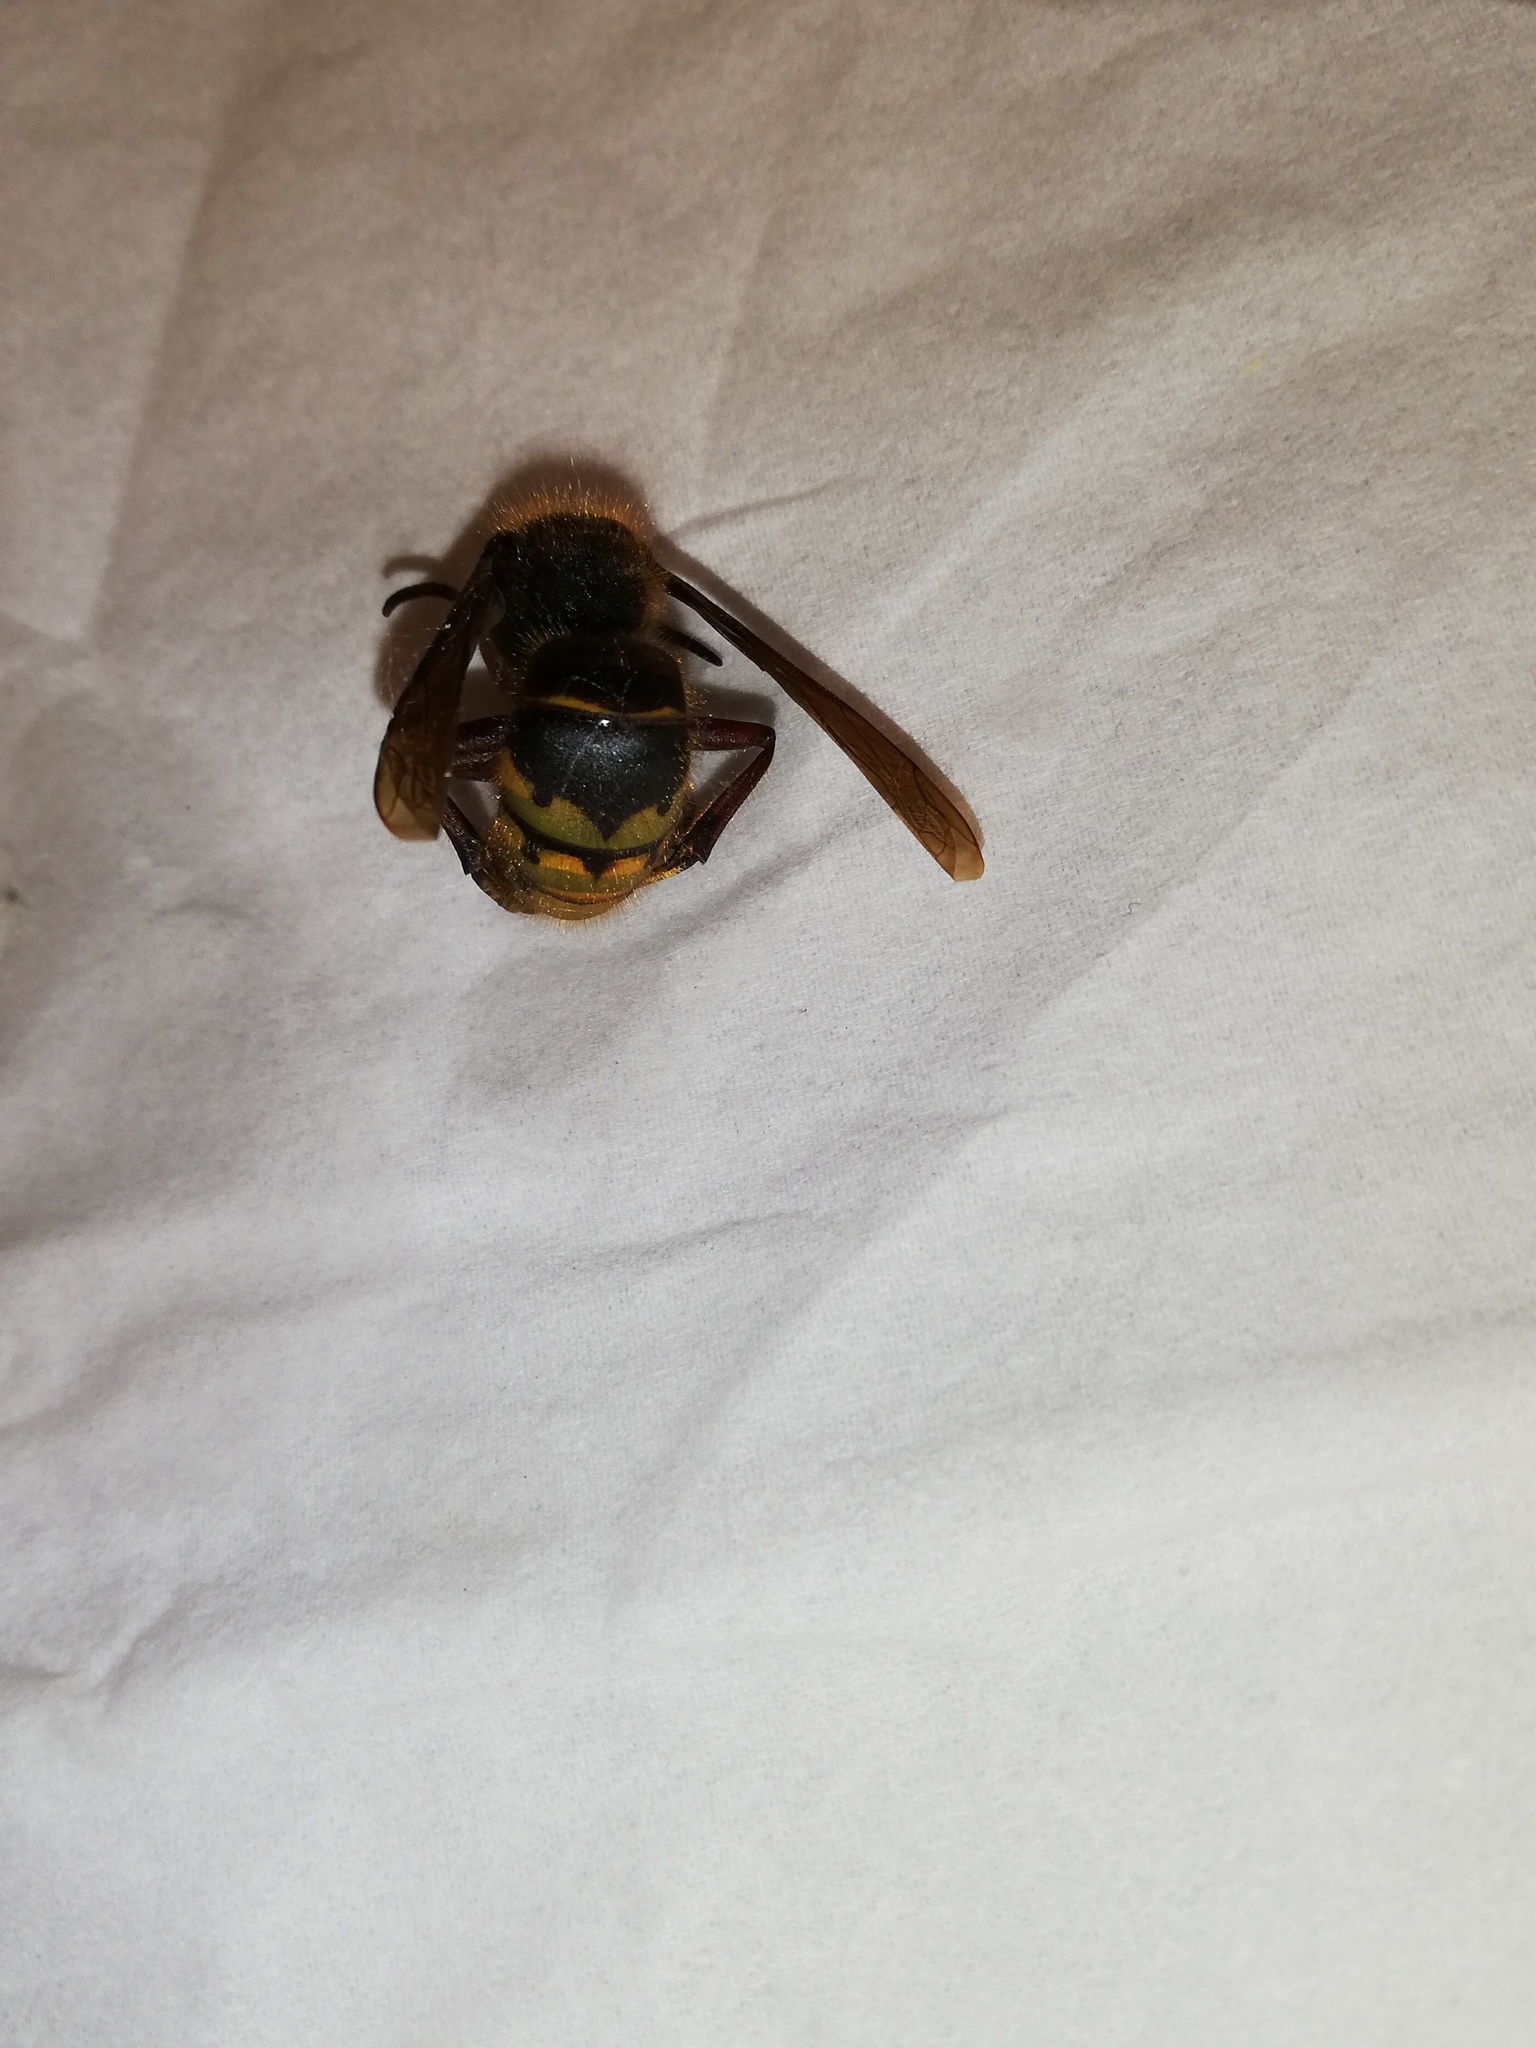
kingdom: Animalia
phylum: Arthropoda
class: Insecta
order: Hymenoptera
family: Vespidae
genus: Vespa
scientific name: Vespa crabro
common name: Hornet
